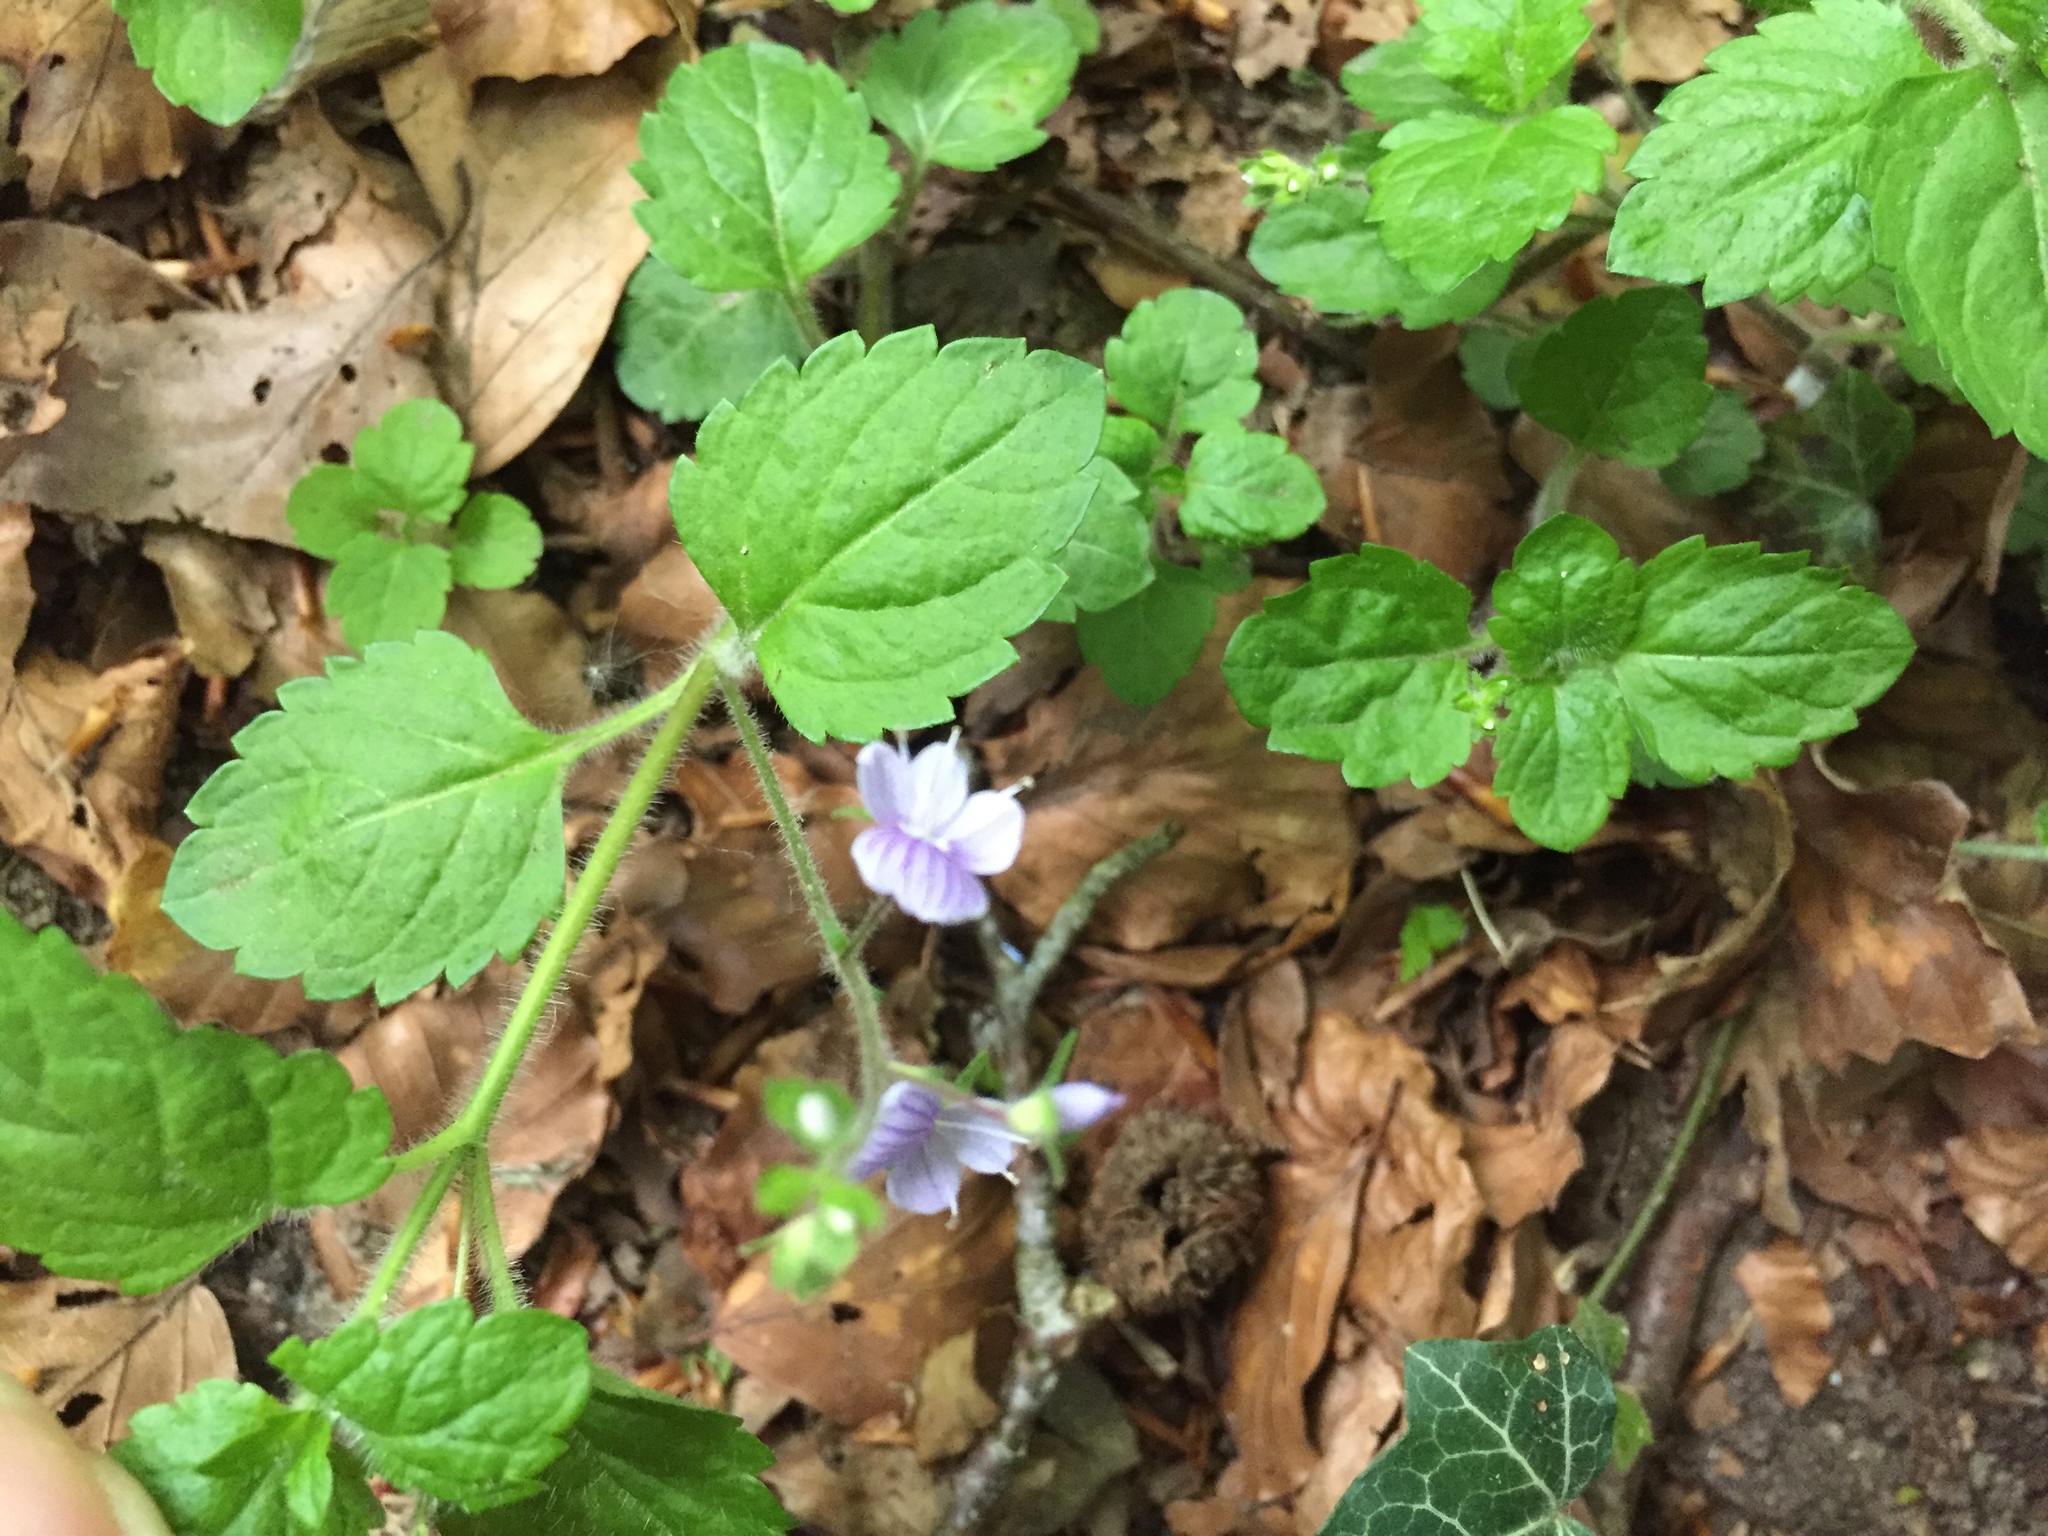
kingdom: Plantae
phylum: Tracheophyta
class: Magnoliopsida
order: Lamiales
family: Plantaginaceae
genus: Veronica
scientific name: Veronica montana
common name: Wood speedwell
